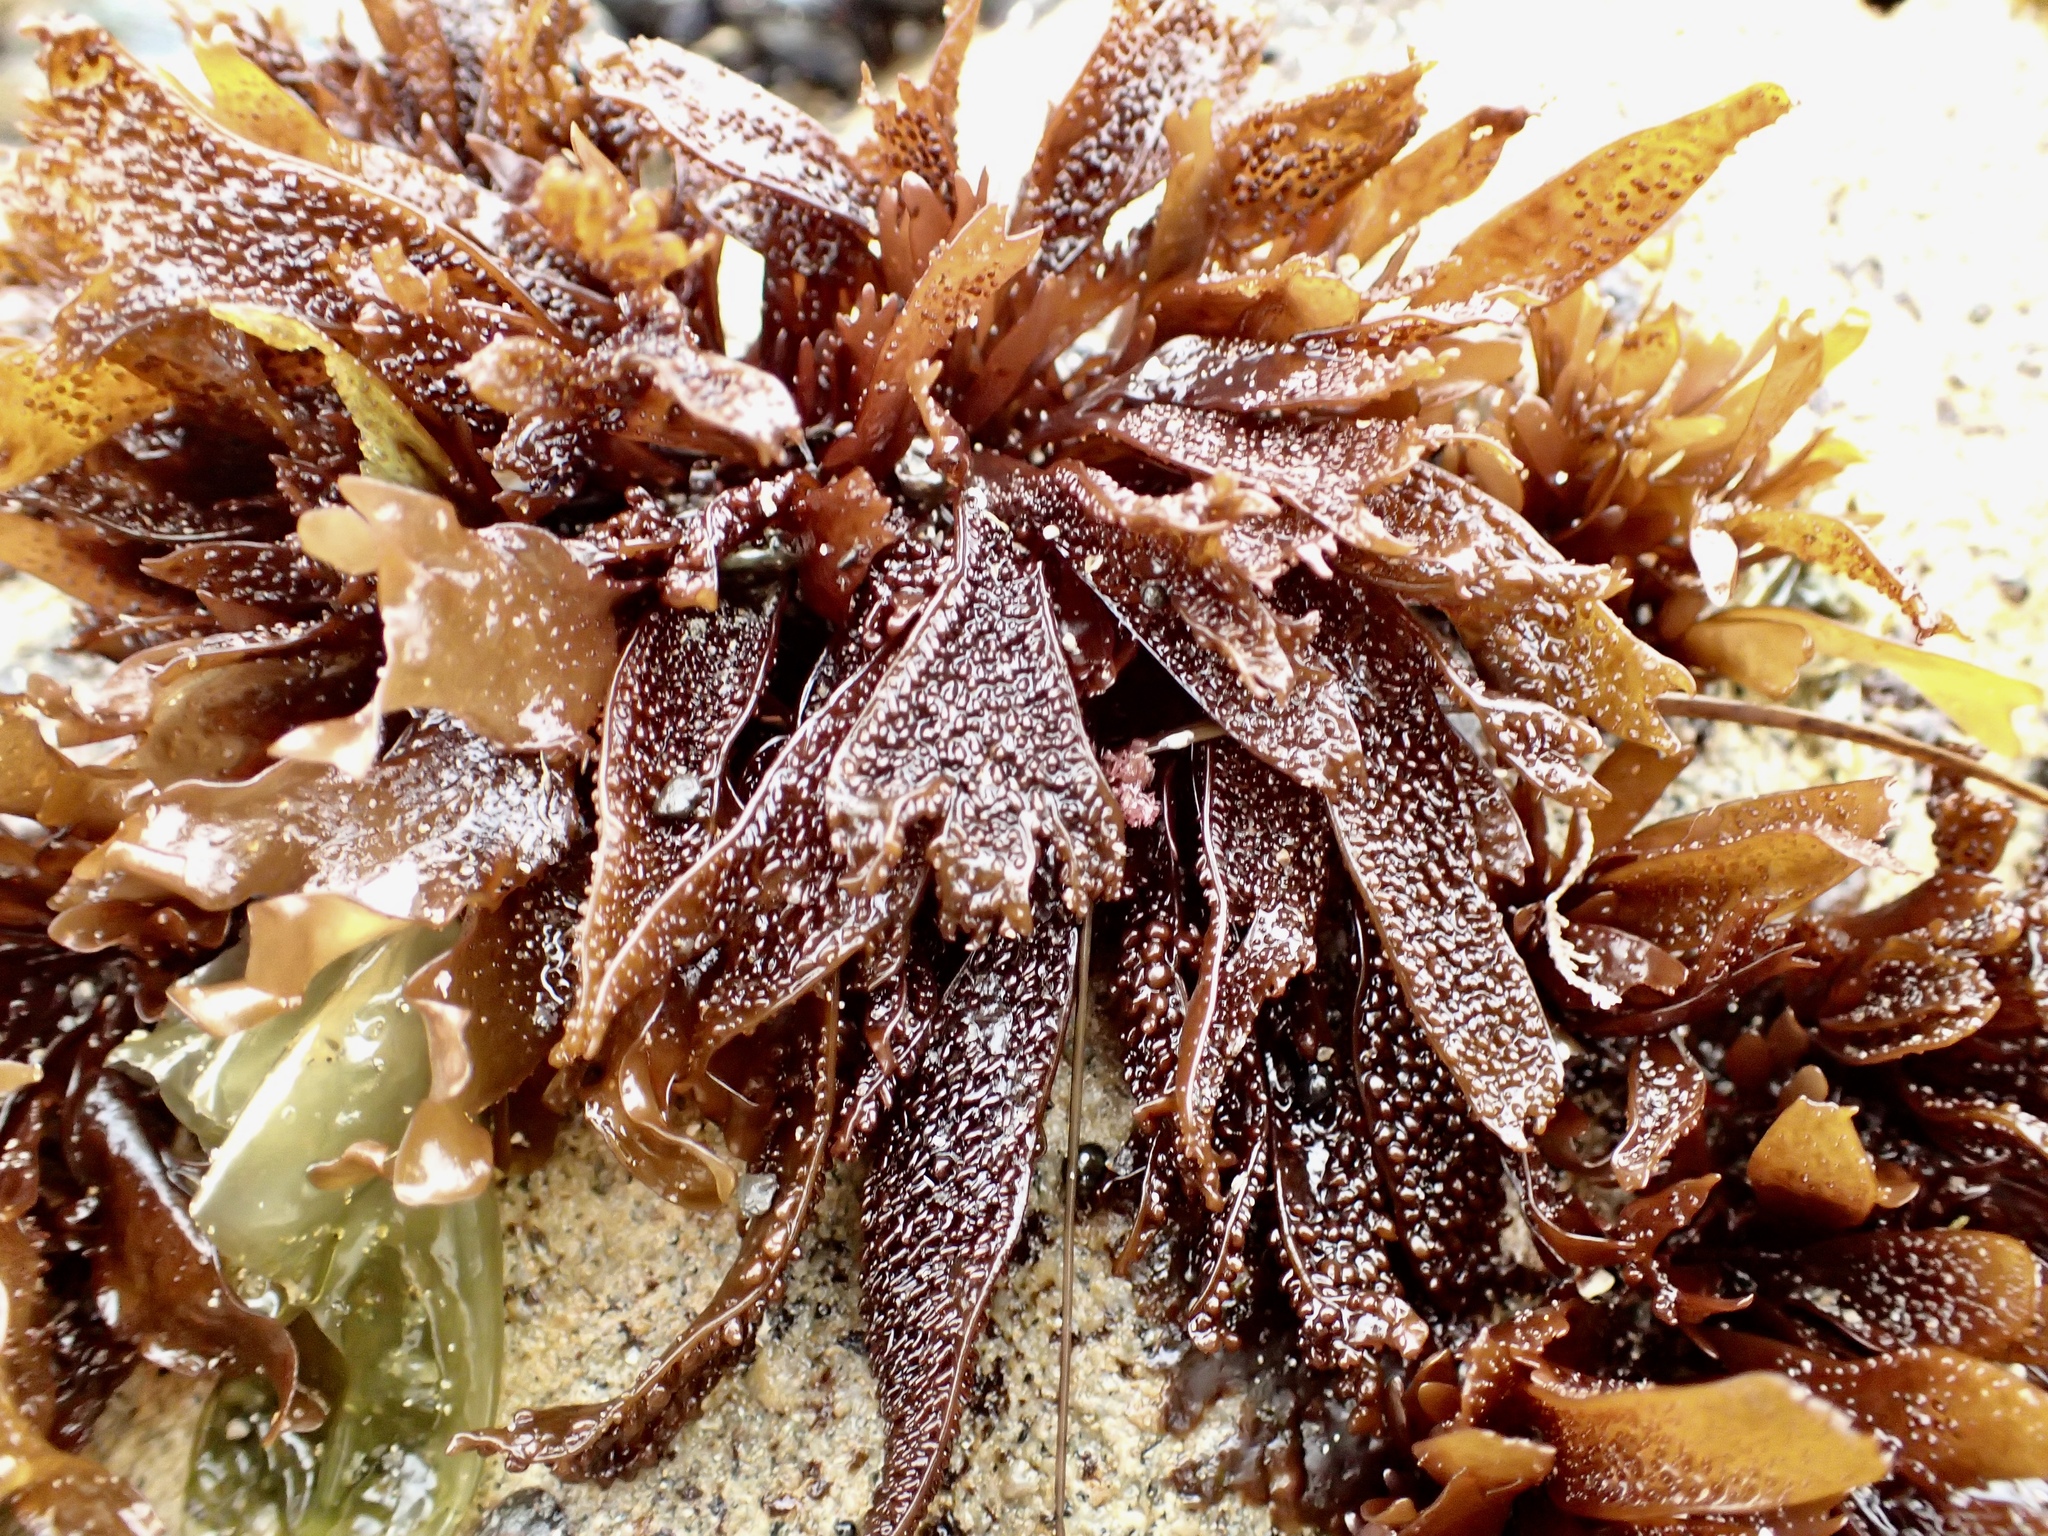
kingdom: Plantae
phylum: Rhodophyta
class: Florideophyceae
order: Gigartinales
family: Phyllophoraceae
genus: Mastocarpus
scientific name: Mastocarpus papillatus
